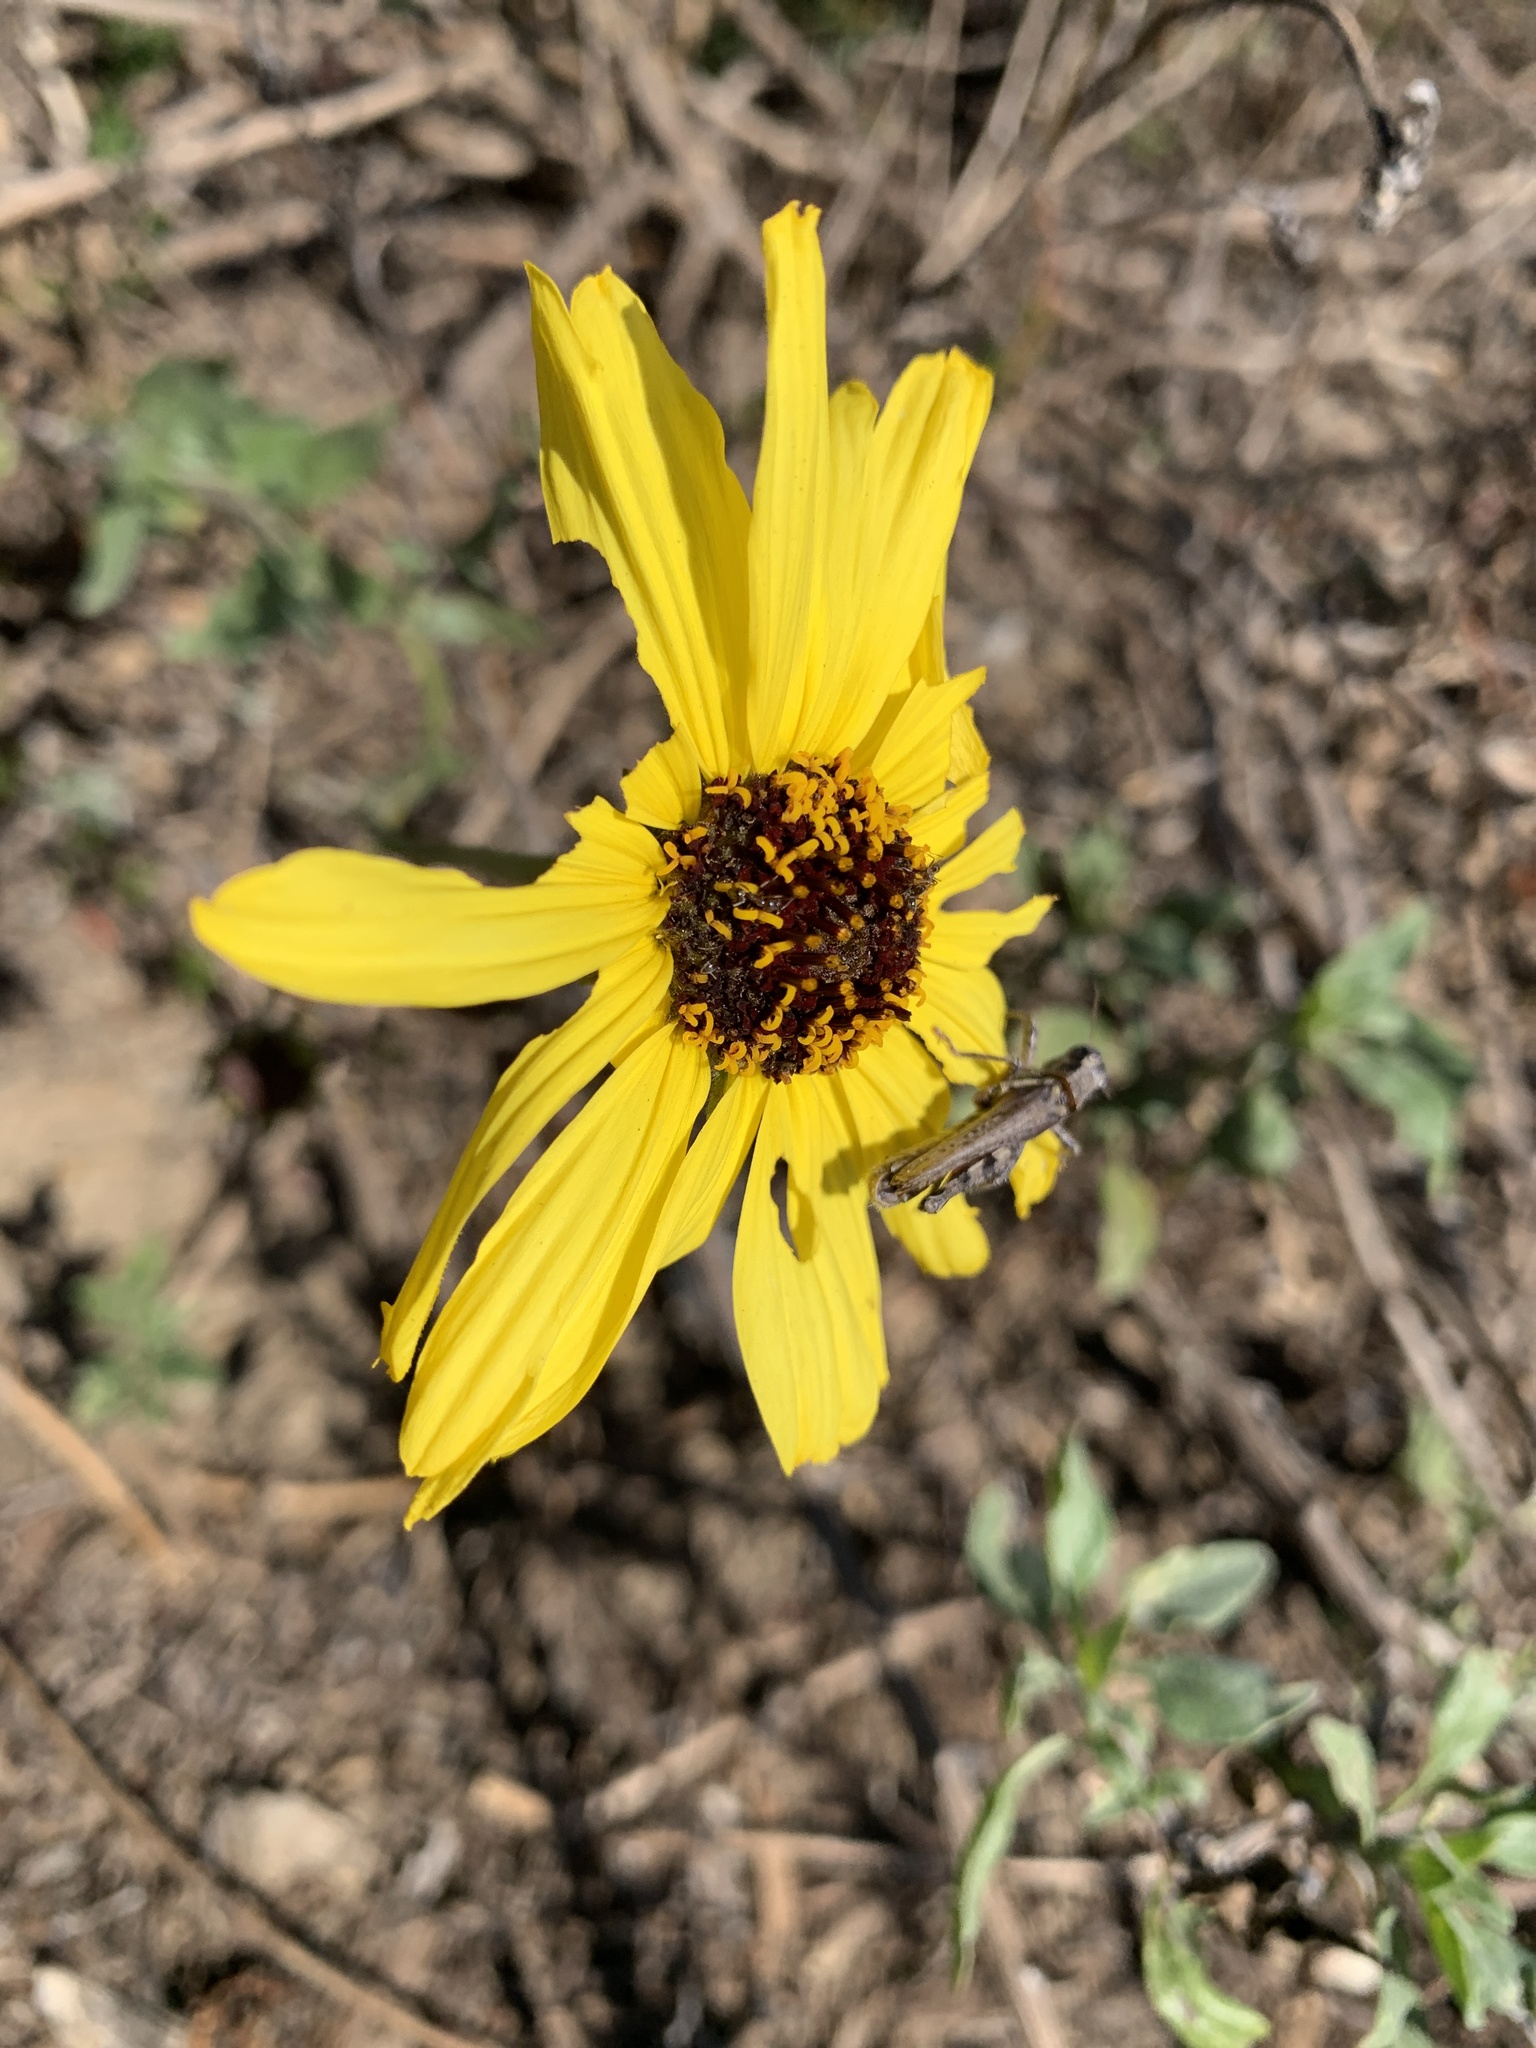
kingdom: Plantae
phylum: Tracheophyta
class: Magnoliopsida
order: Asterales
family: Asteraceae
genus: Encelia
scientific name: Encelia californica
